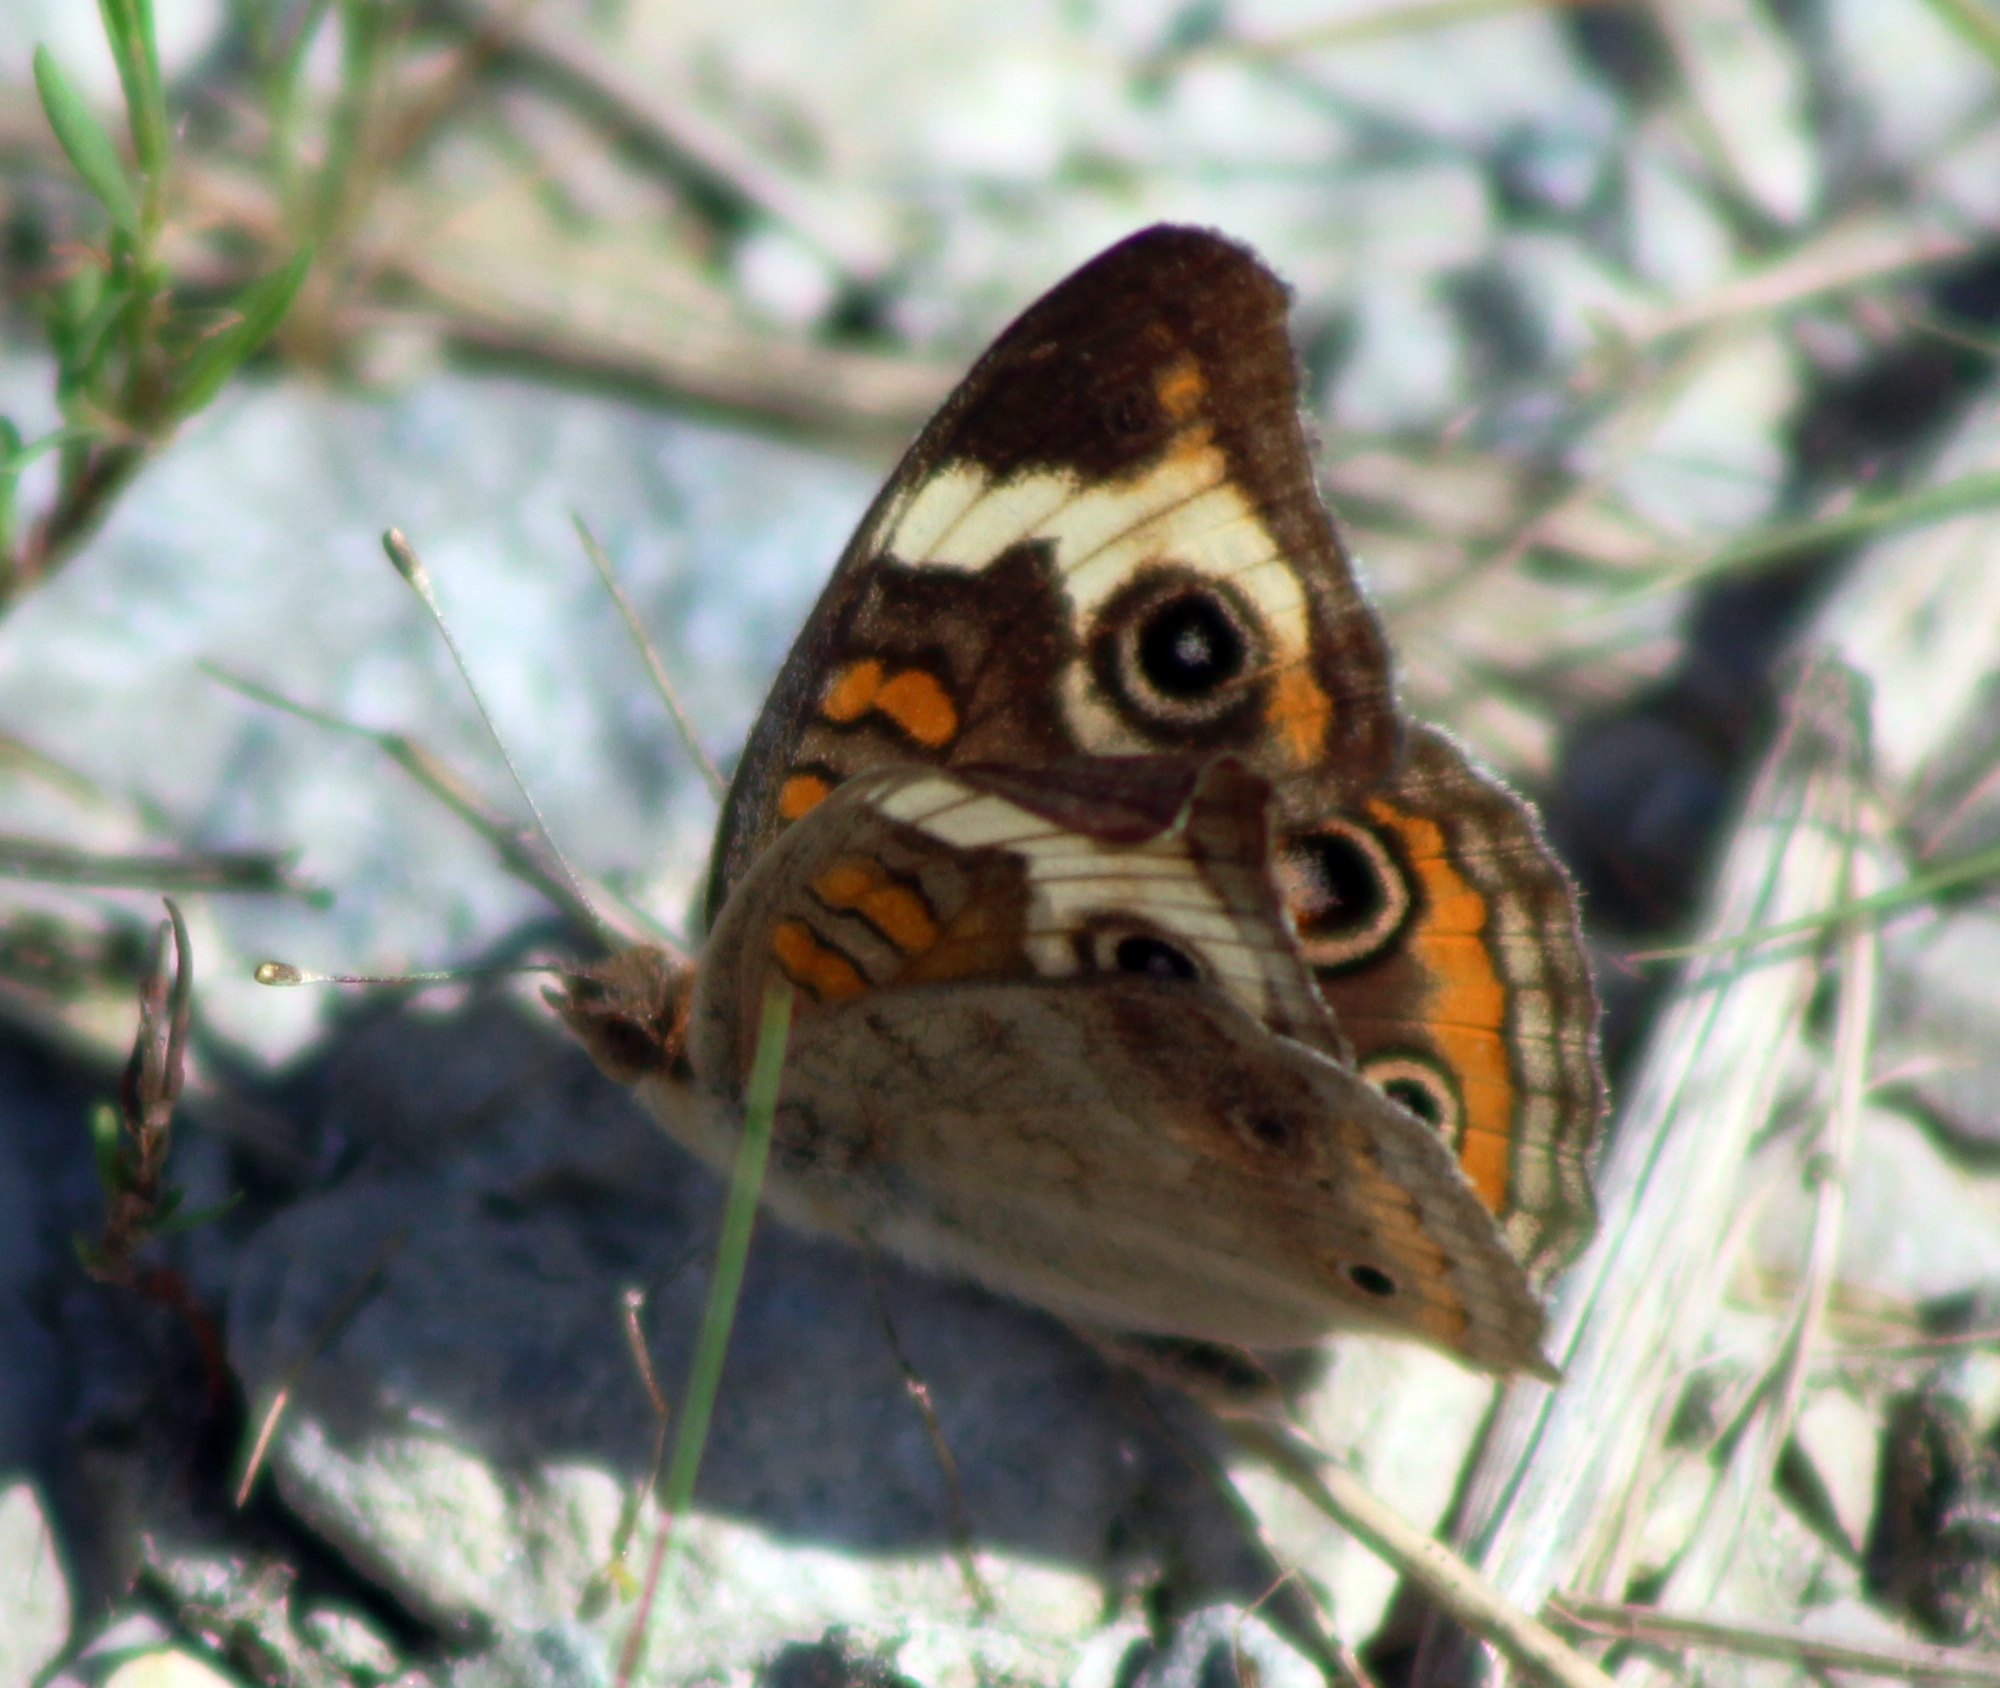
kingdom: Animalia
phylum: Arthropoda
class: Insecta
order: Lepidoptera
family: Nymphalidae
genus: Junonia
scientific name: Junonia coenia
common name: Common buckeye
